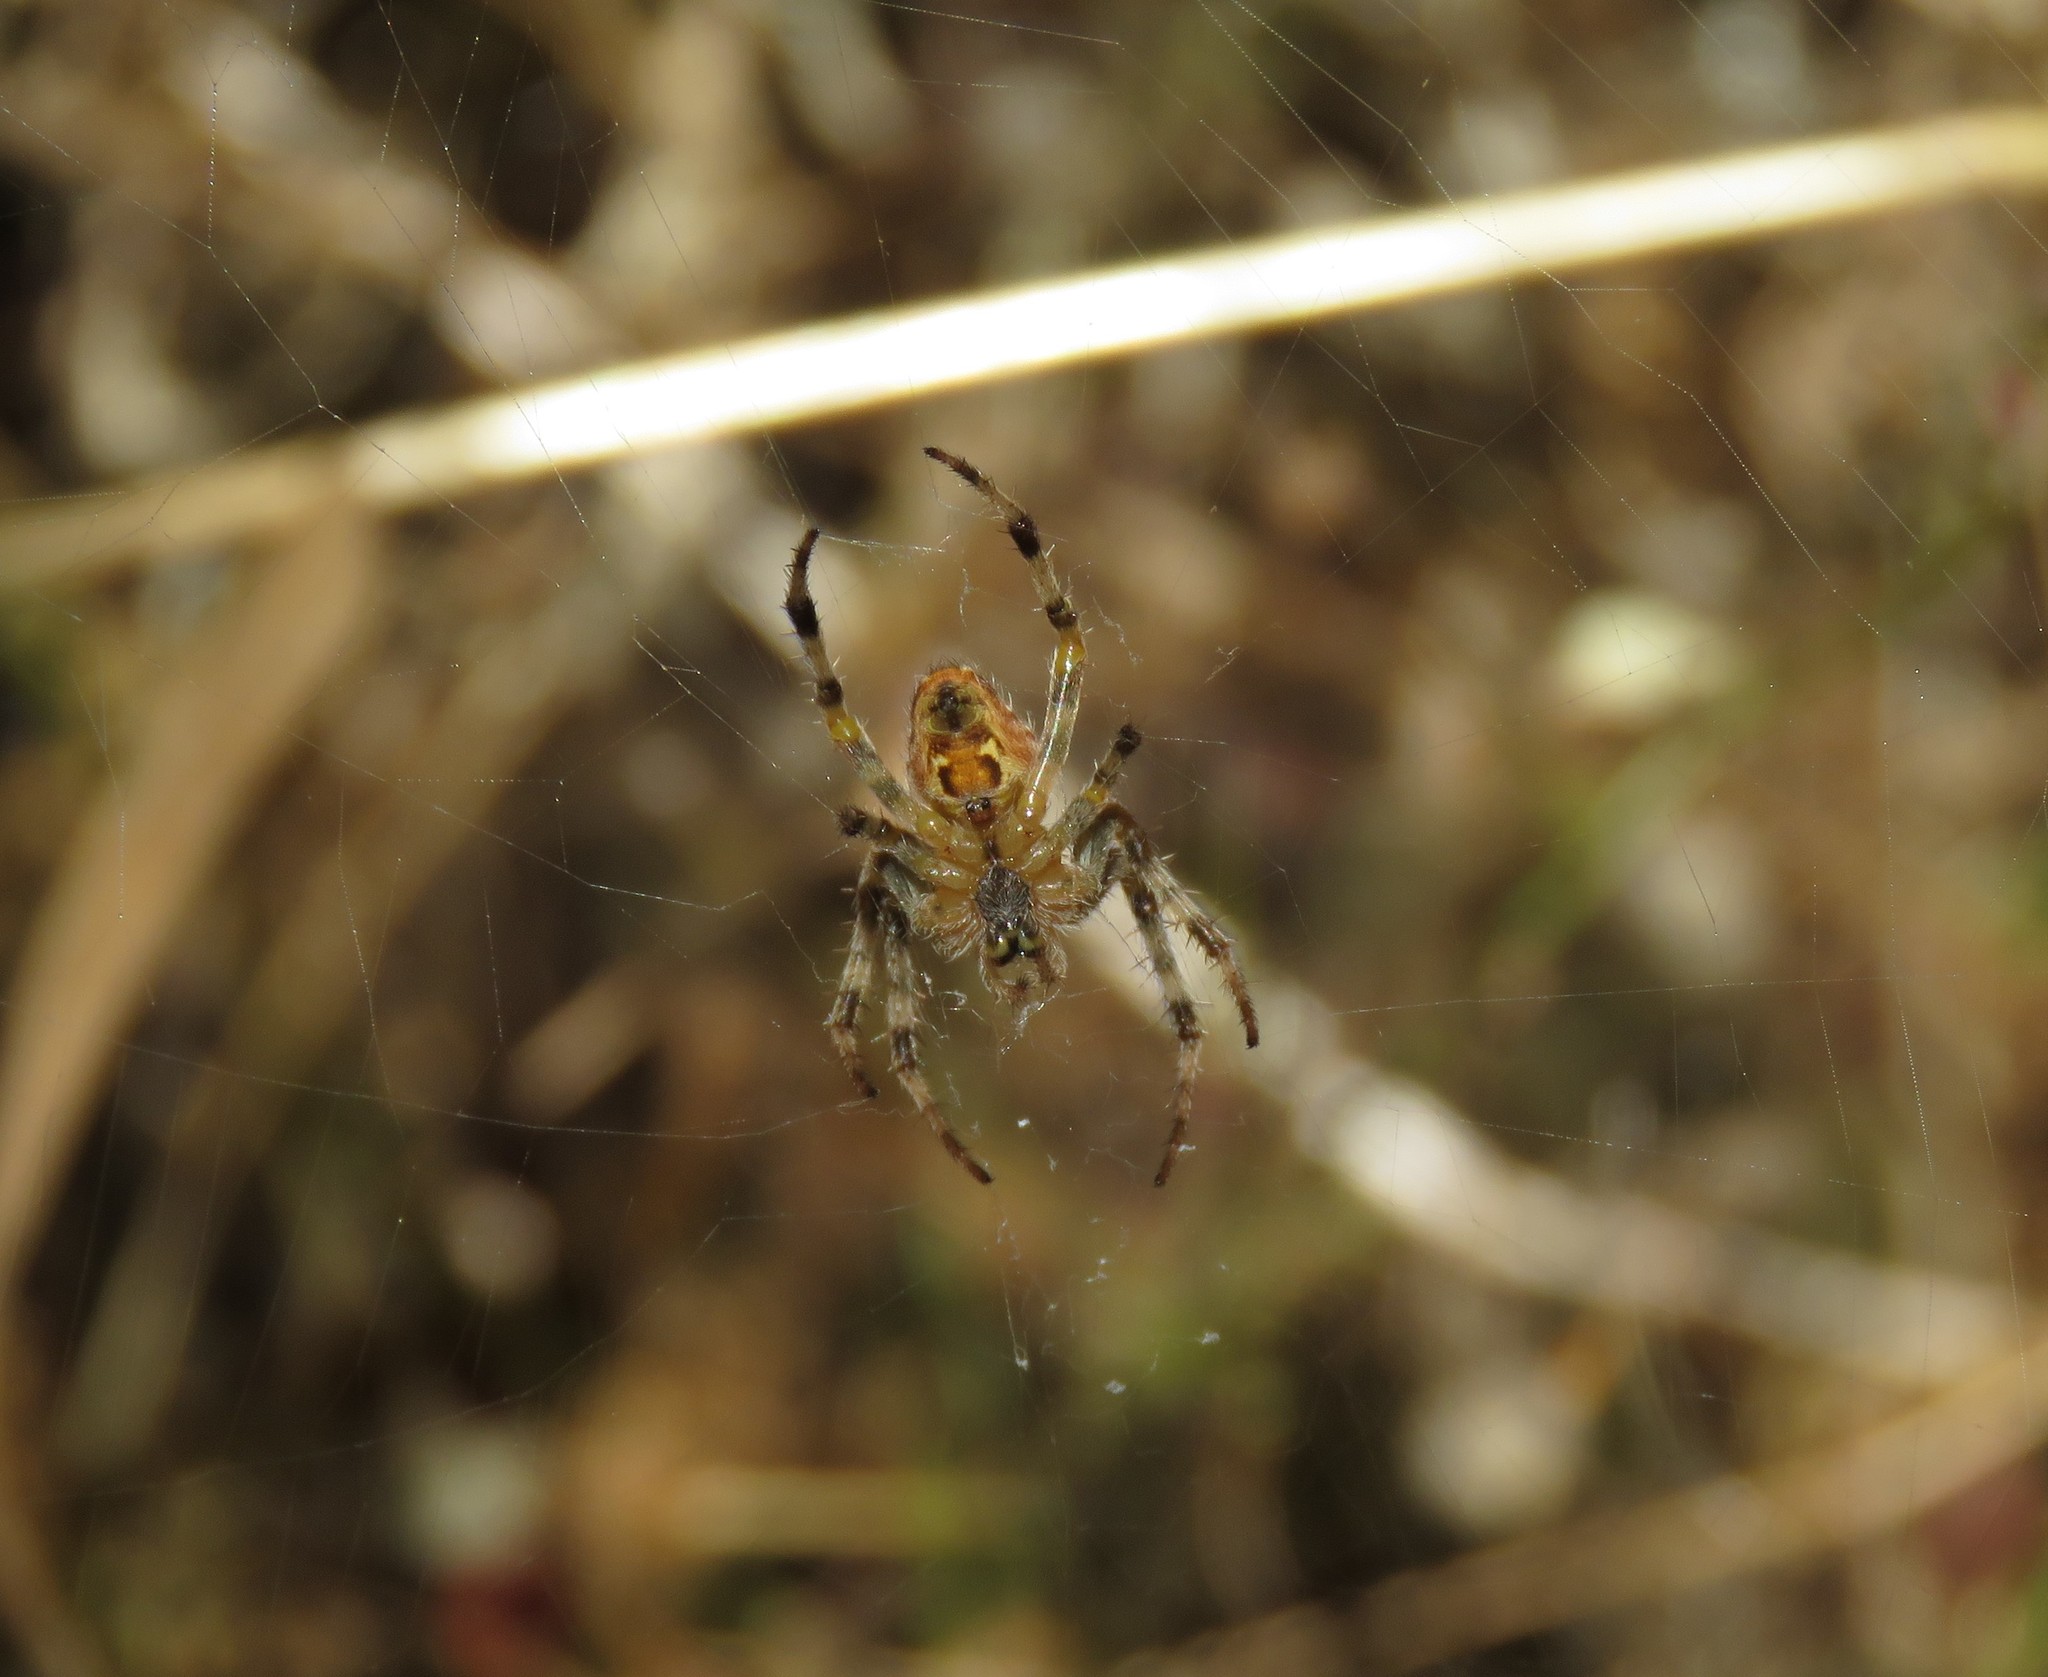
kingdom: Animalia
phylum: Arthropoda
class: Arachnida
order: Araneae
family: Araneidae
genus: Araneus
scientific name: Araneus diadematus
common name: Cross orbweaver
